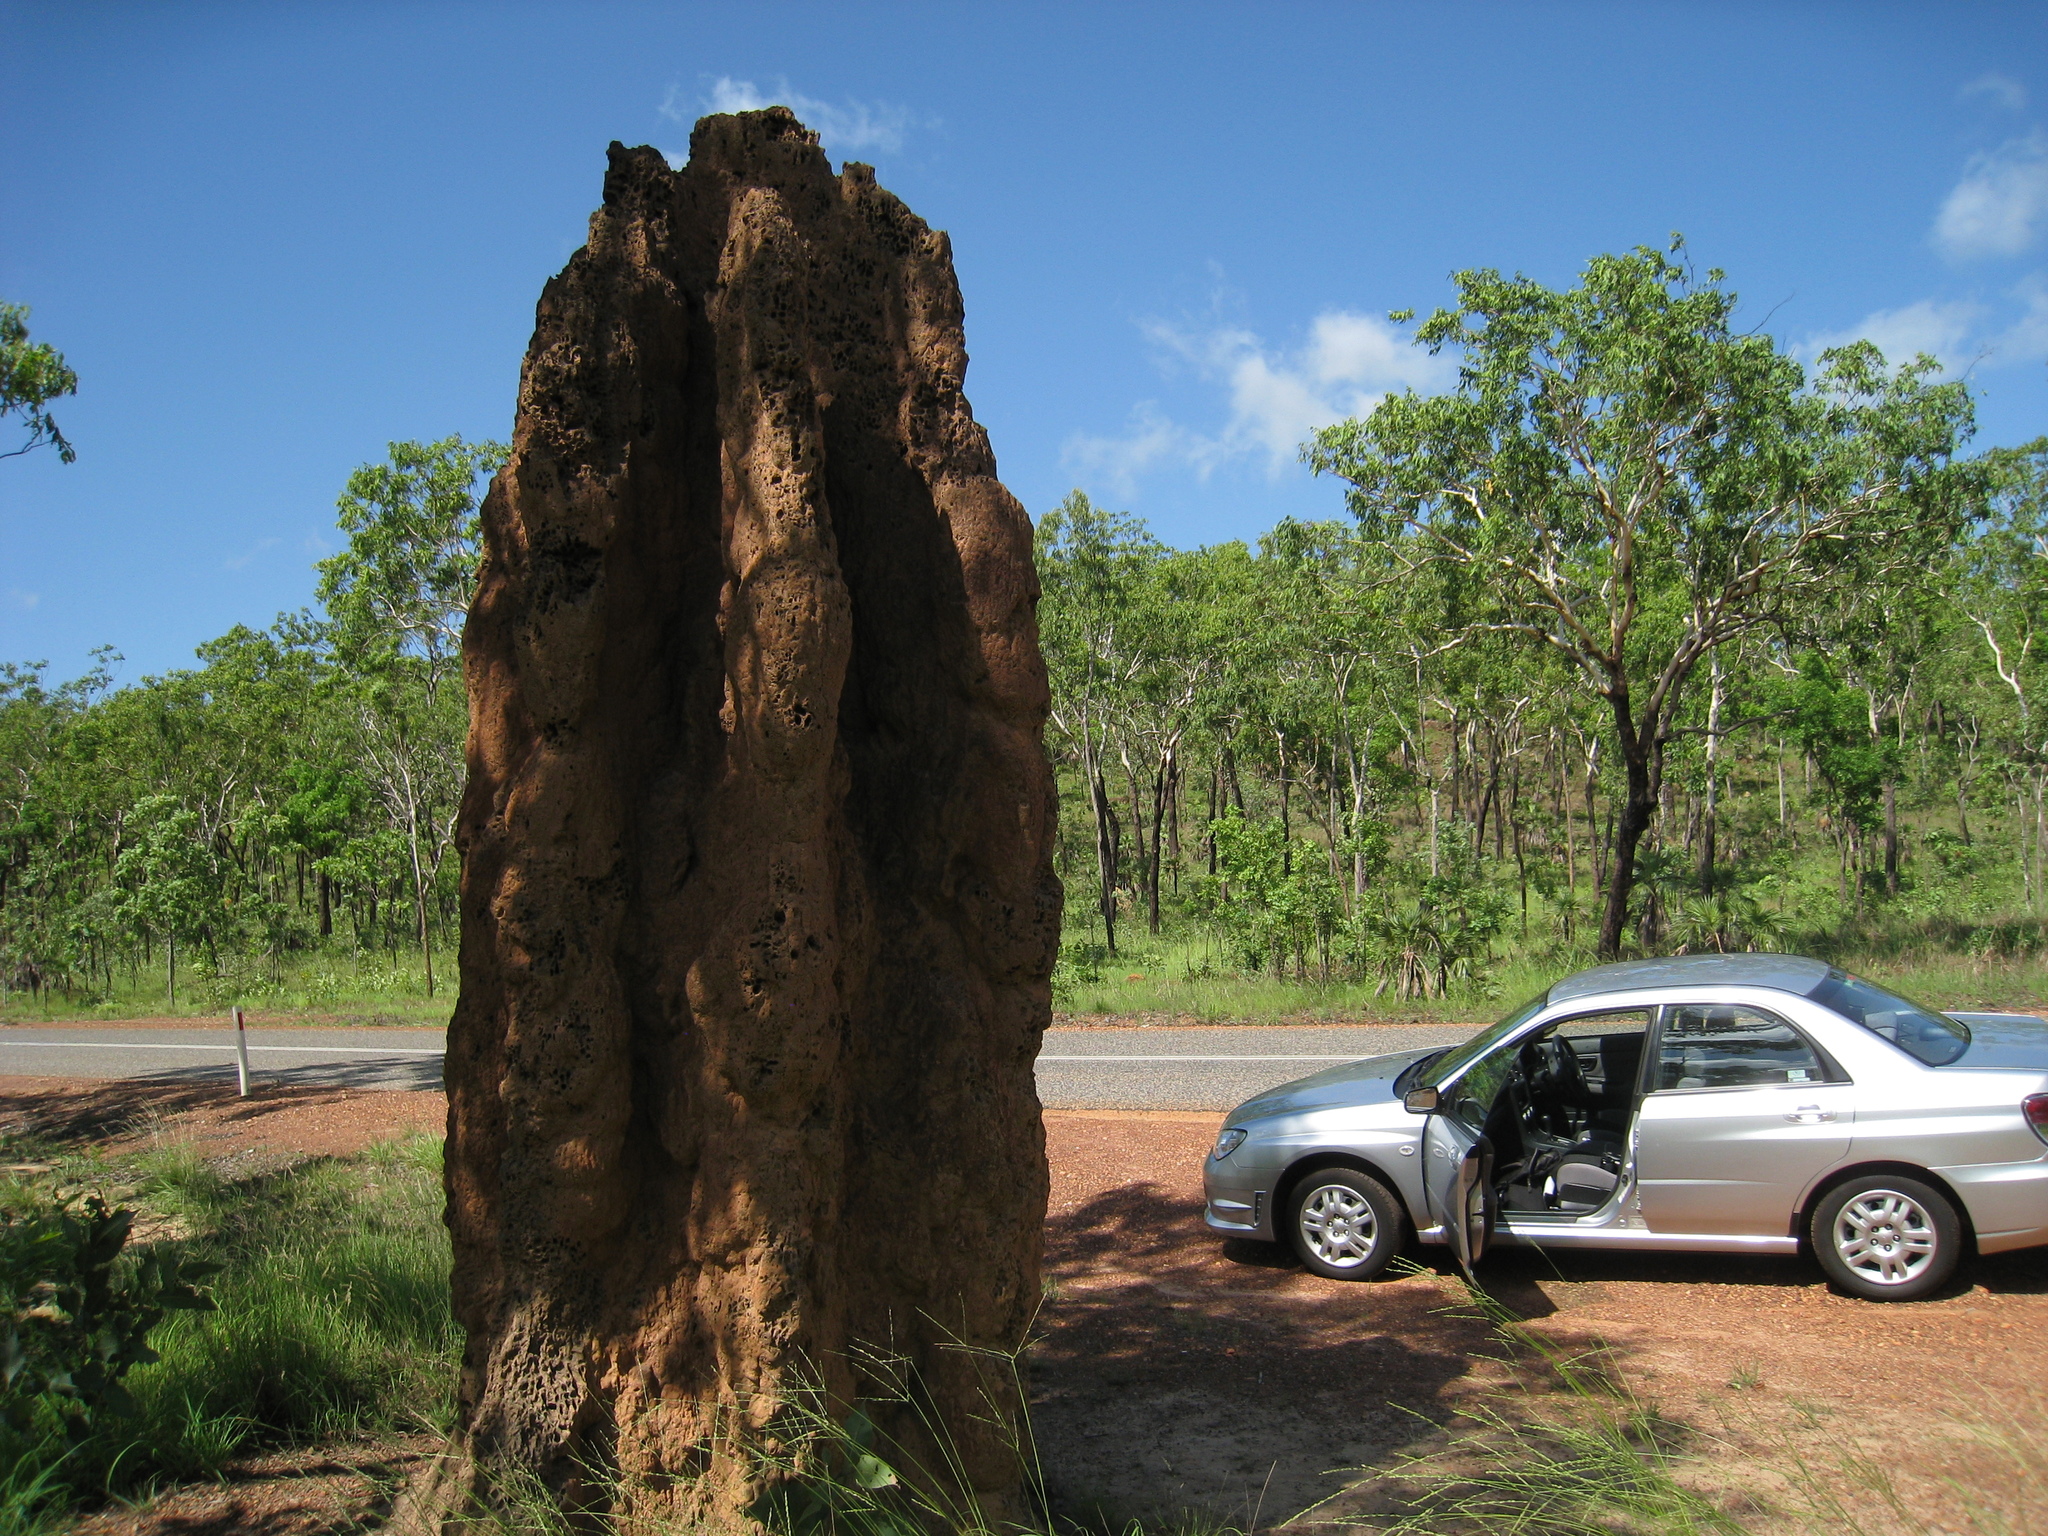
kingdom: Animalia
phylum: Arthropoda
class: Insecta
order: Blattodea
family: Termitidae
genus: Nasutitermes
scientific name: Nasutitermes triodiae
